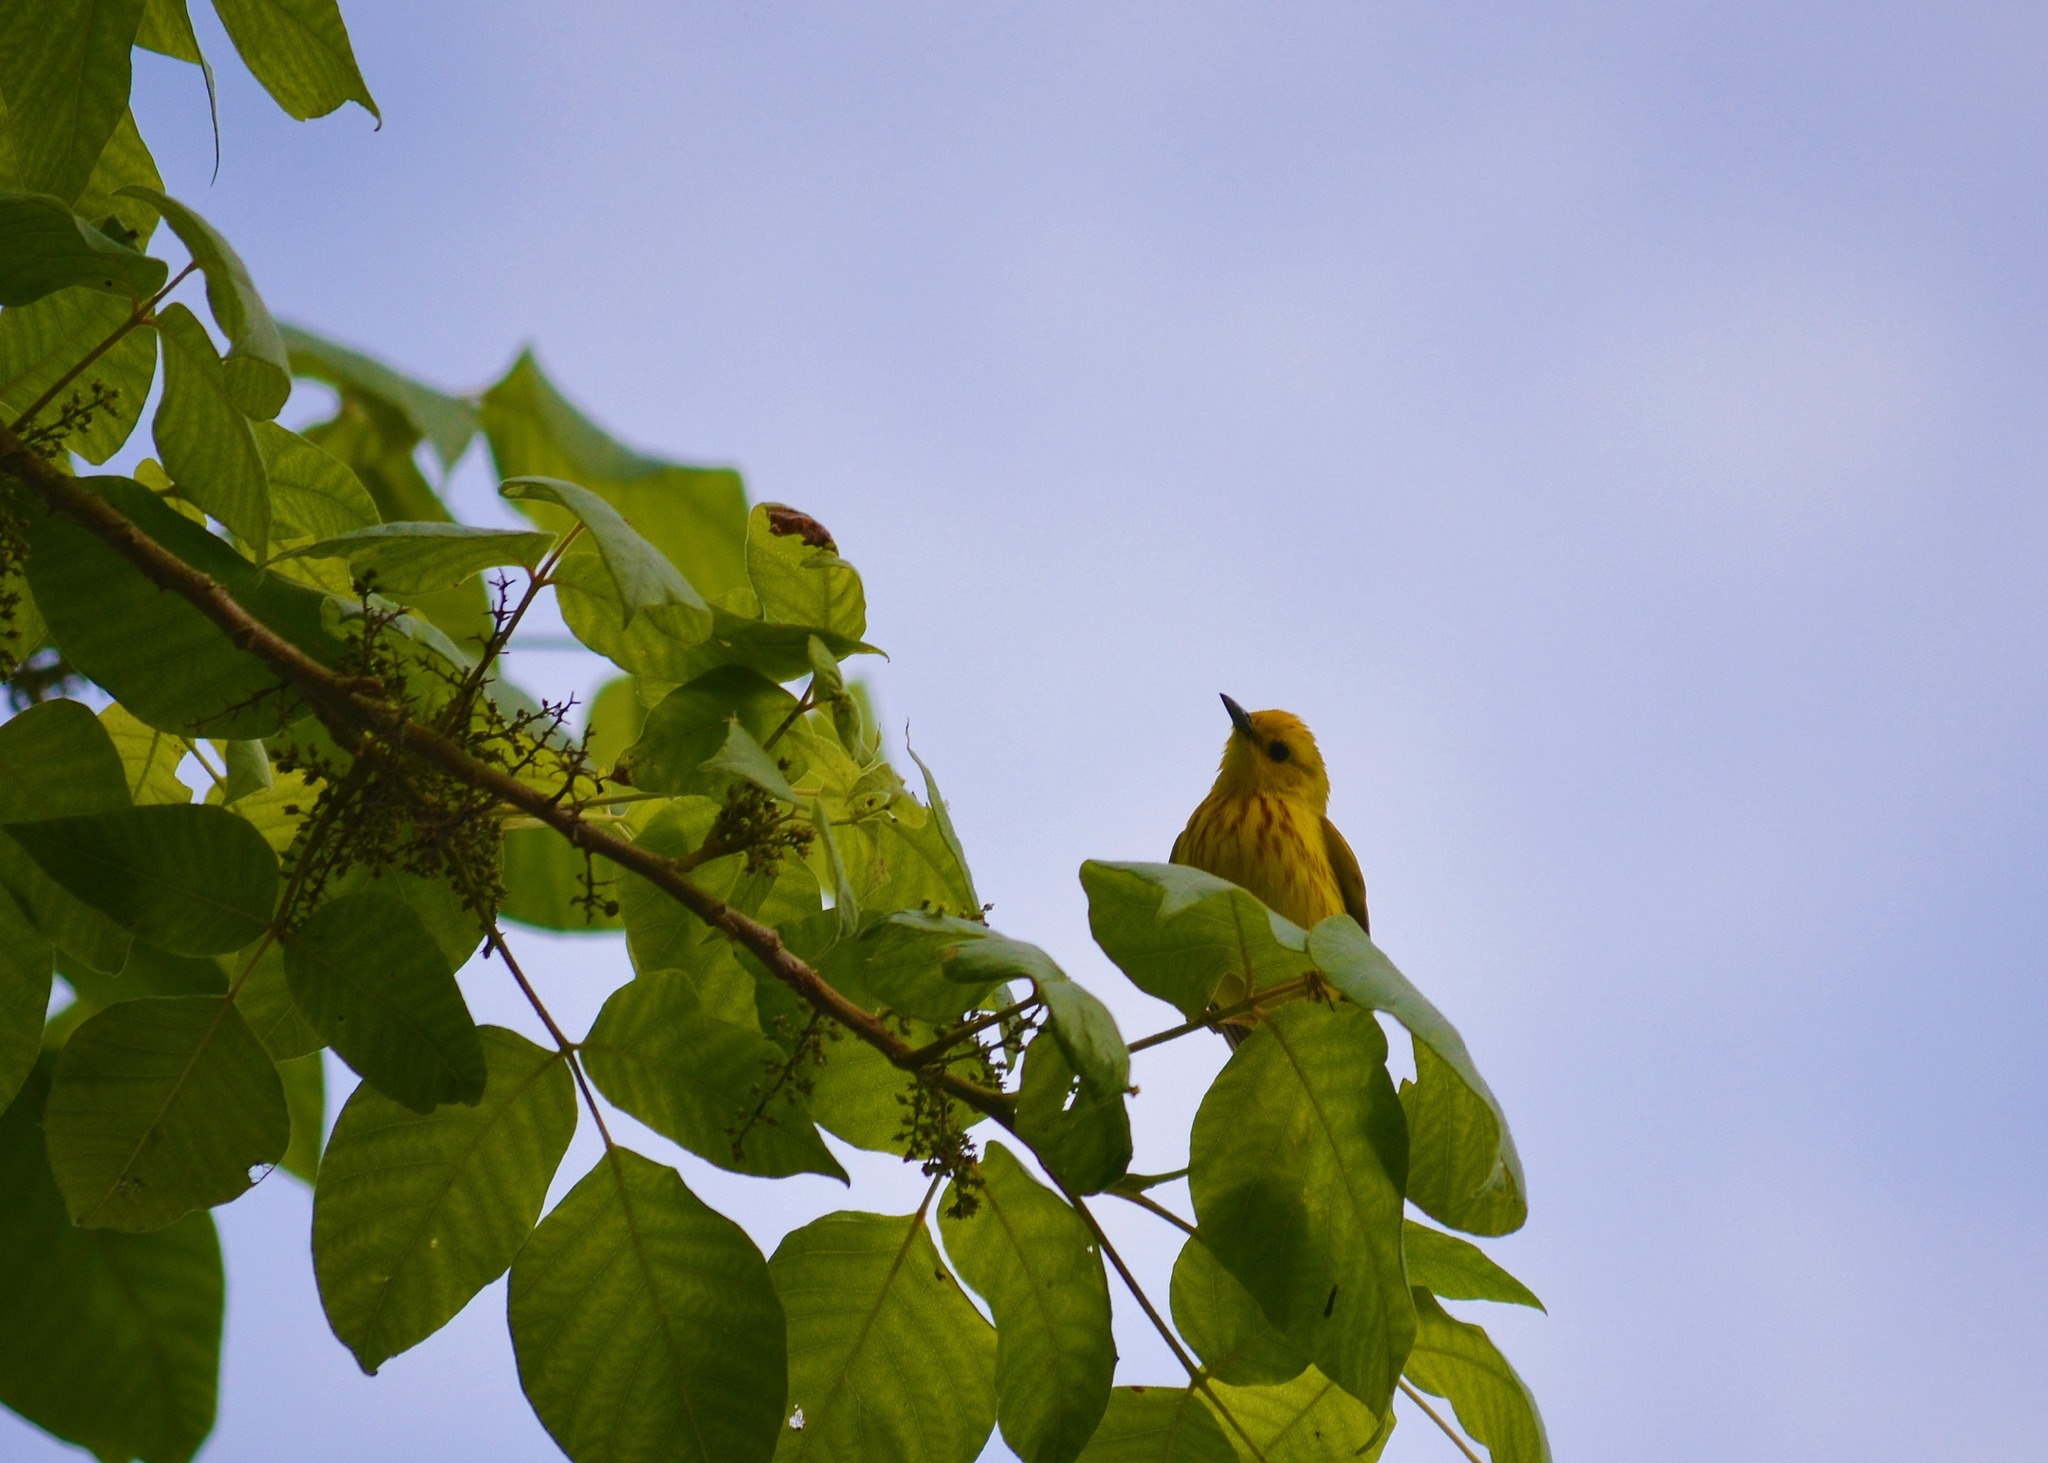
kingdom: Animalia
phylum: Chordata
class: Aves
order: Passeriformes
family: Parulidae
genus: Setophaga
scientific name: Setophaga petechia
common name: Yellow warbler
